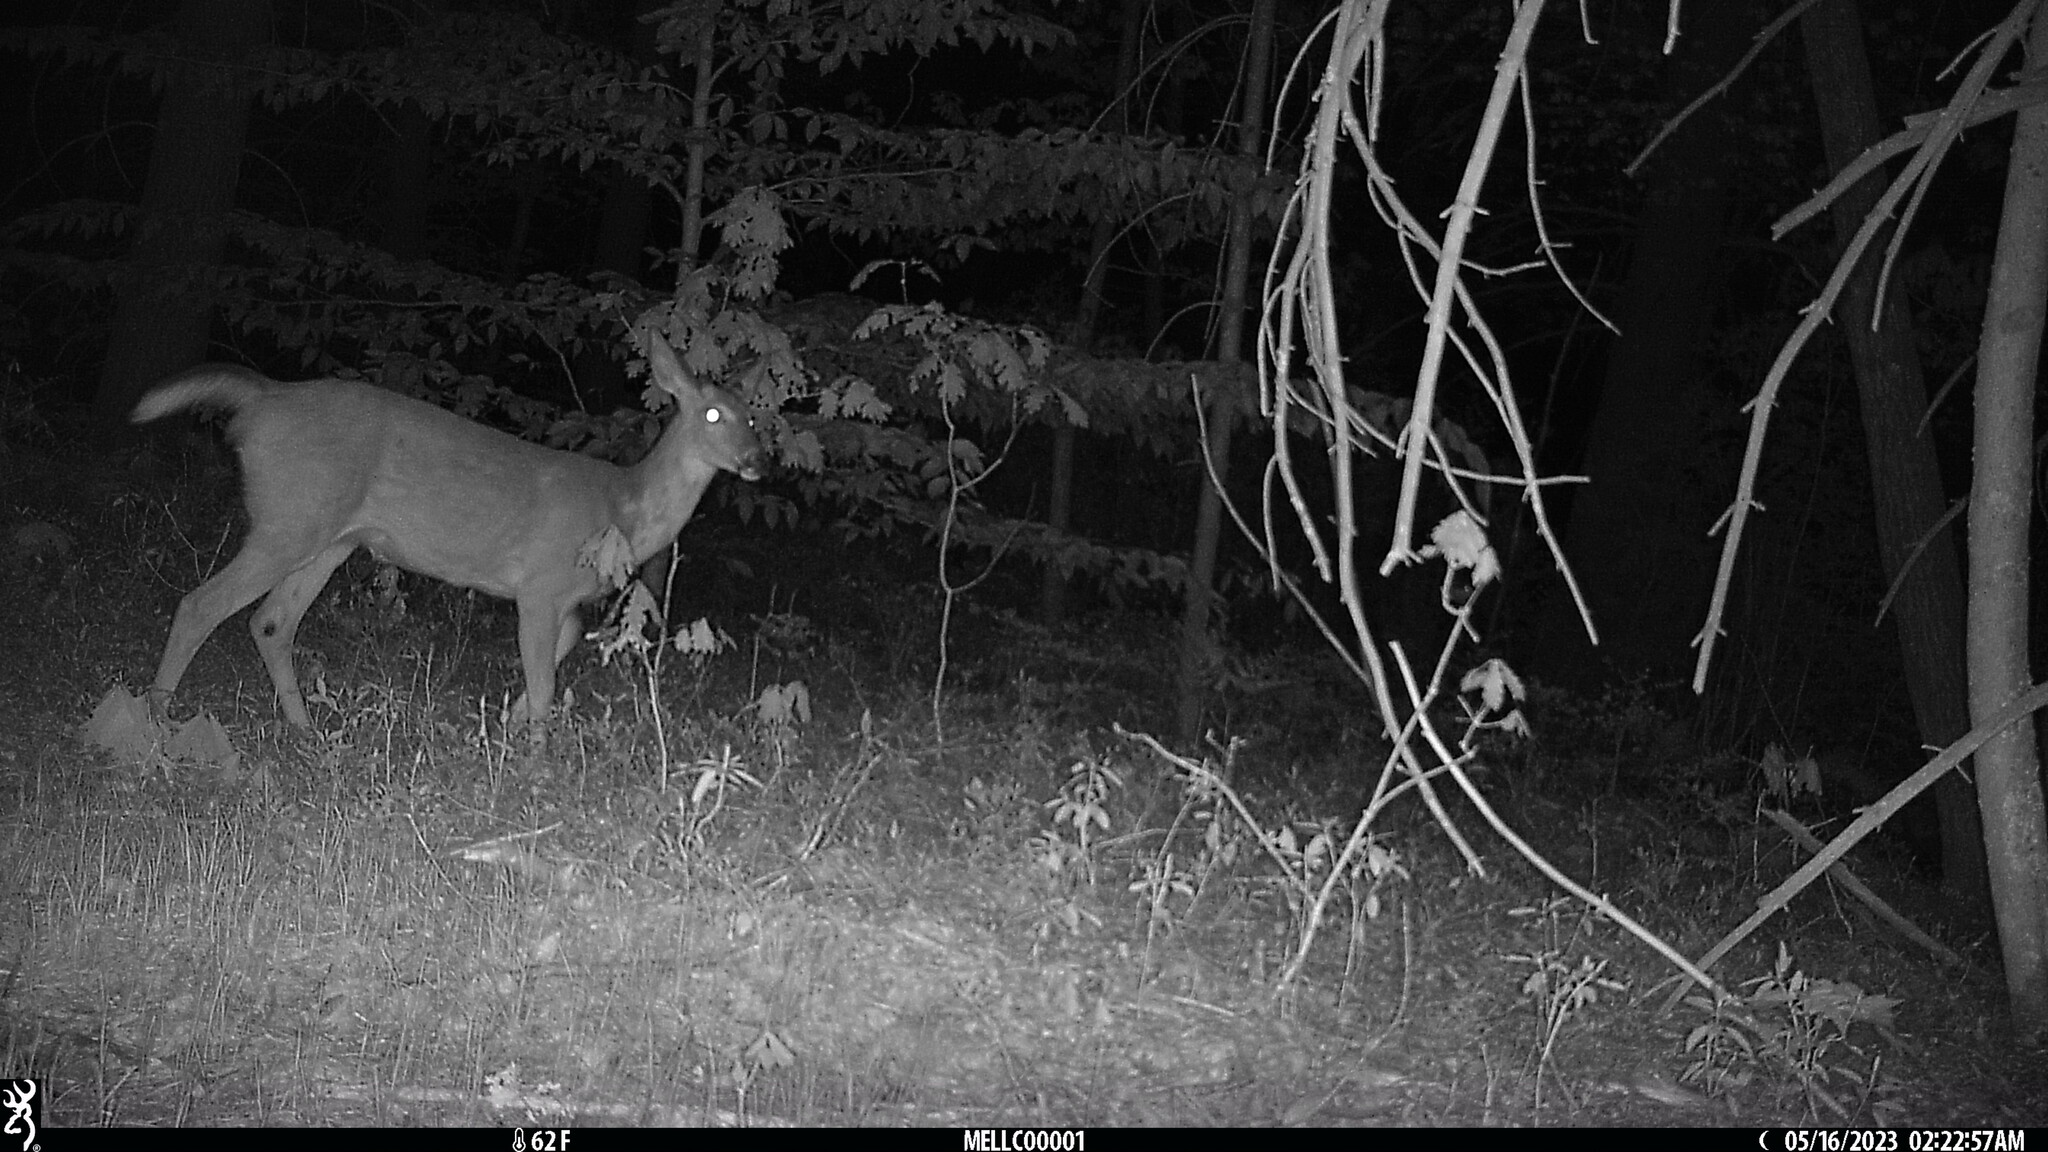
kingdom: Animalia
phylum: Chordata
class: Mammalia
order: Artiodactyla
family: Cervidae
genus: Odocoileus
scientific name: Odocoileus virginianus
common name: White-tailed deer
